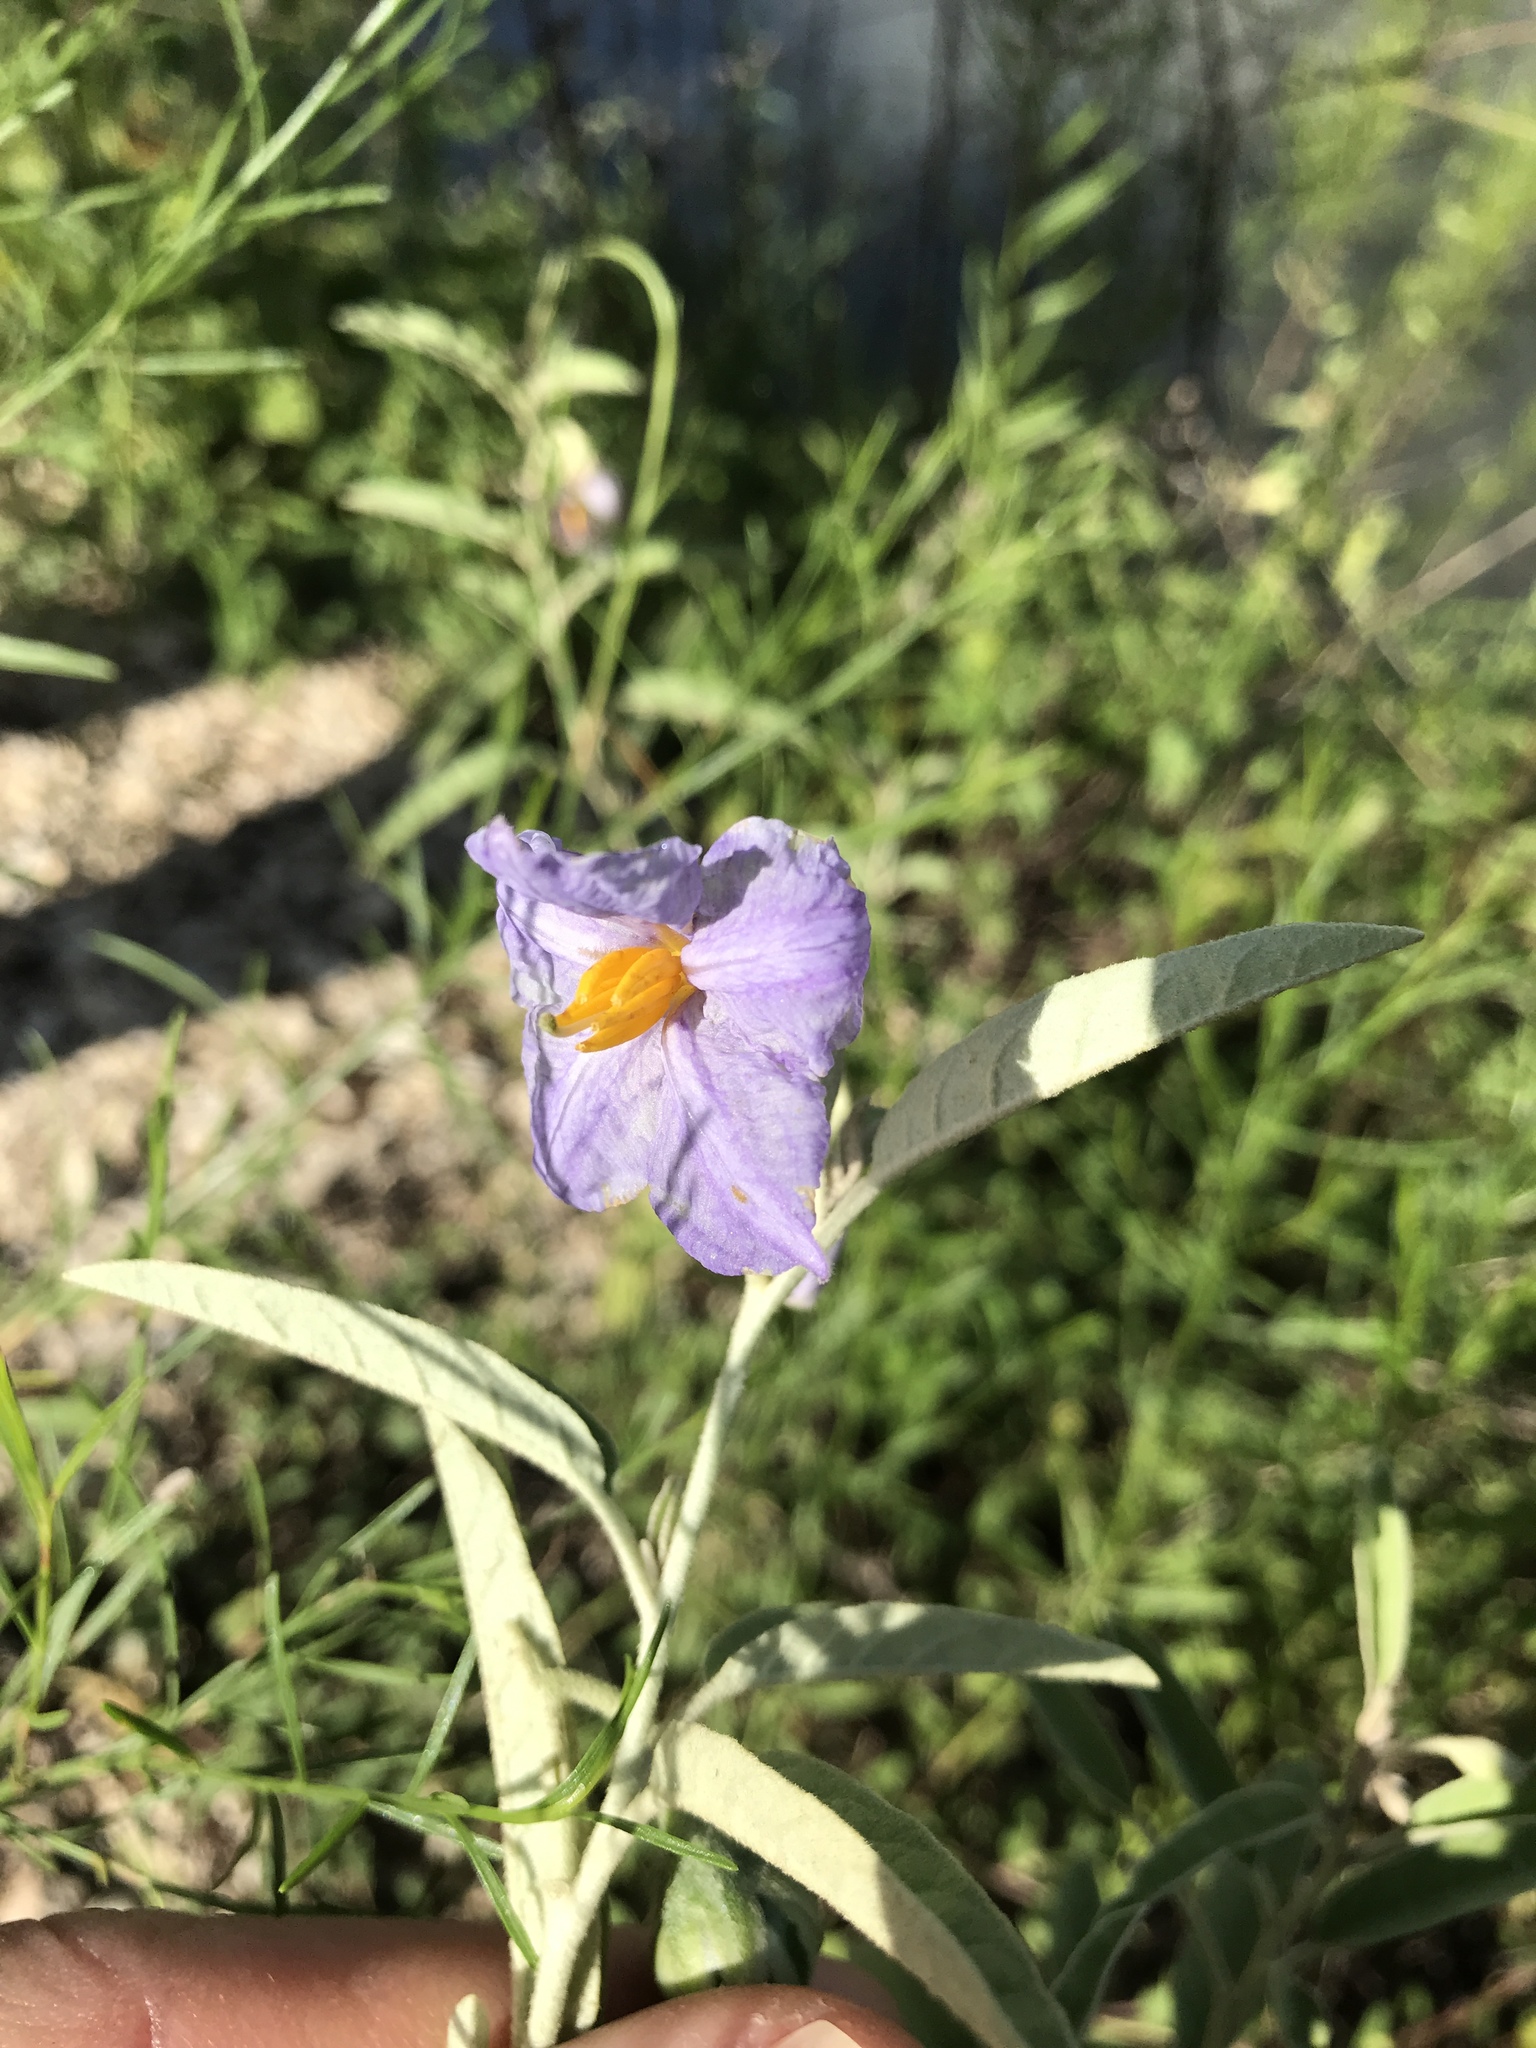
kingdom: Plantae
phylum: Tracheophyta
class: Magnoliopsida
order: Solanales
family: Solanaceae
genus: Solanum
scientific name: Solanum elaeagnifolium
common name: Silverleaf nightshade
